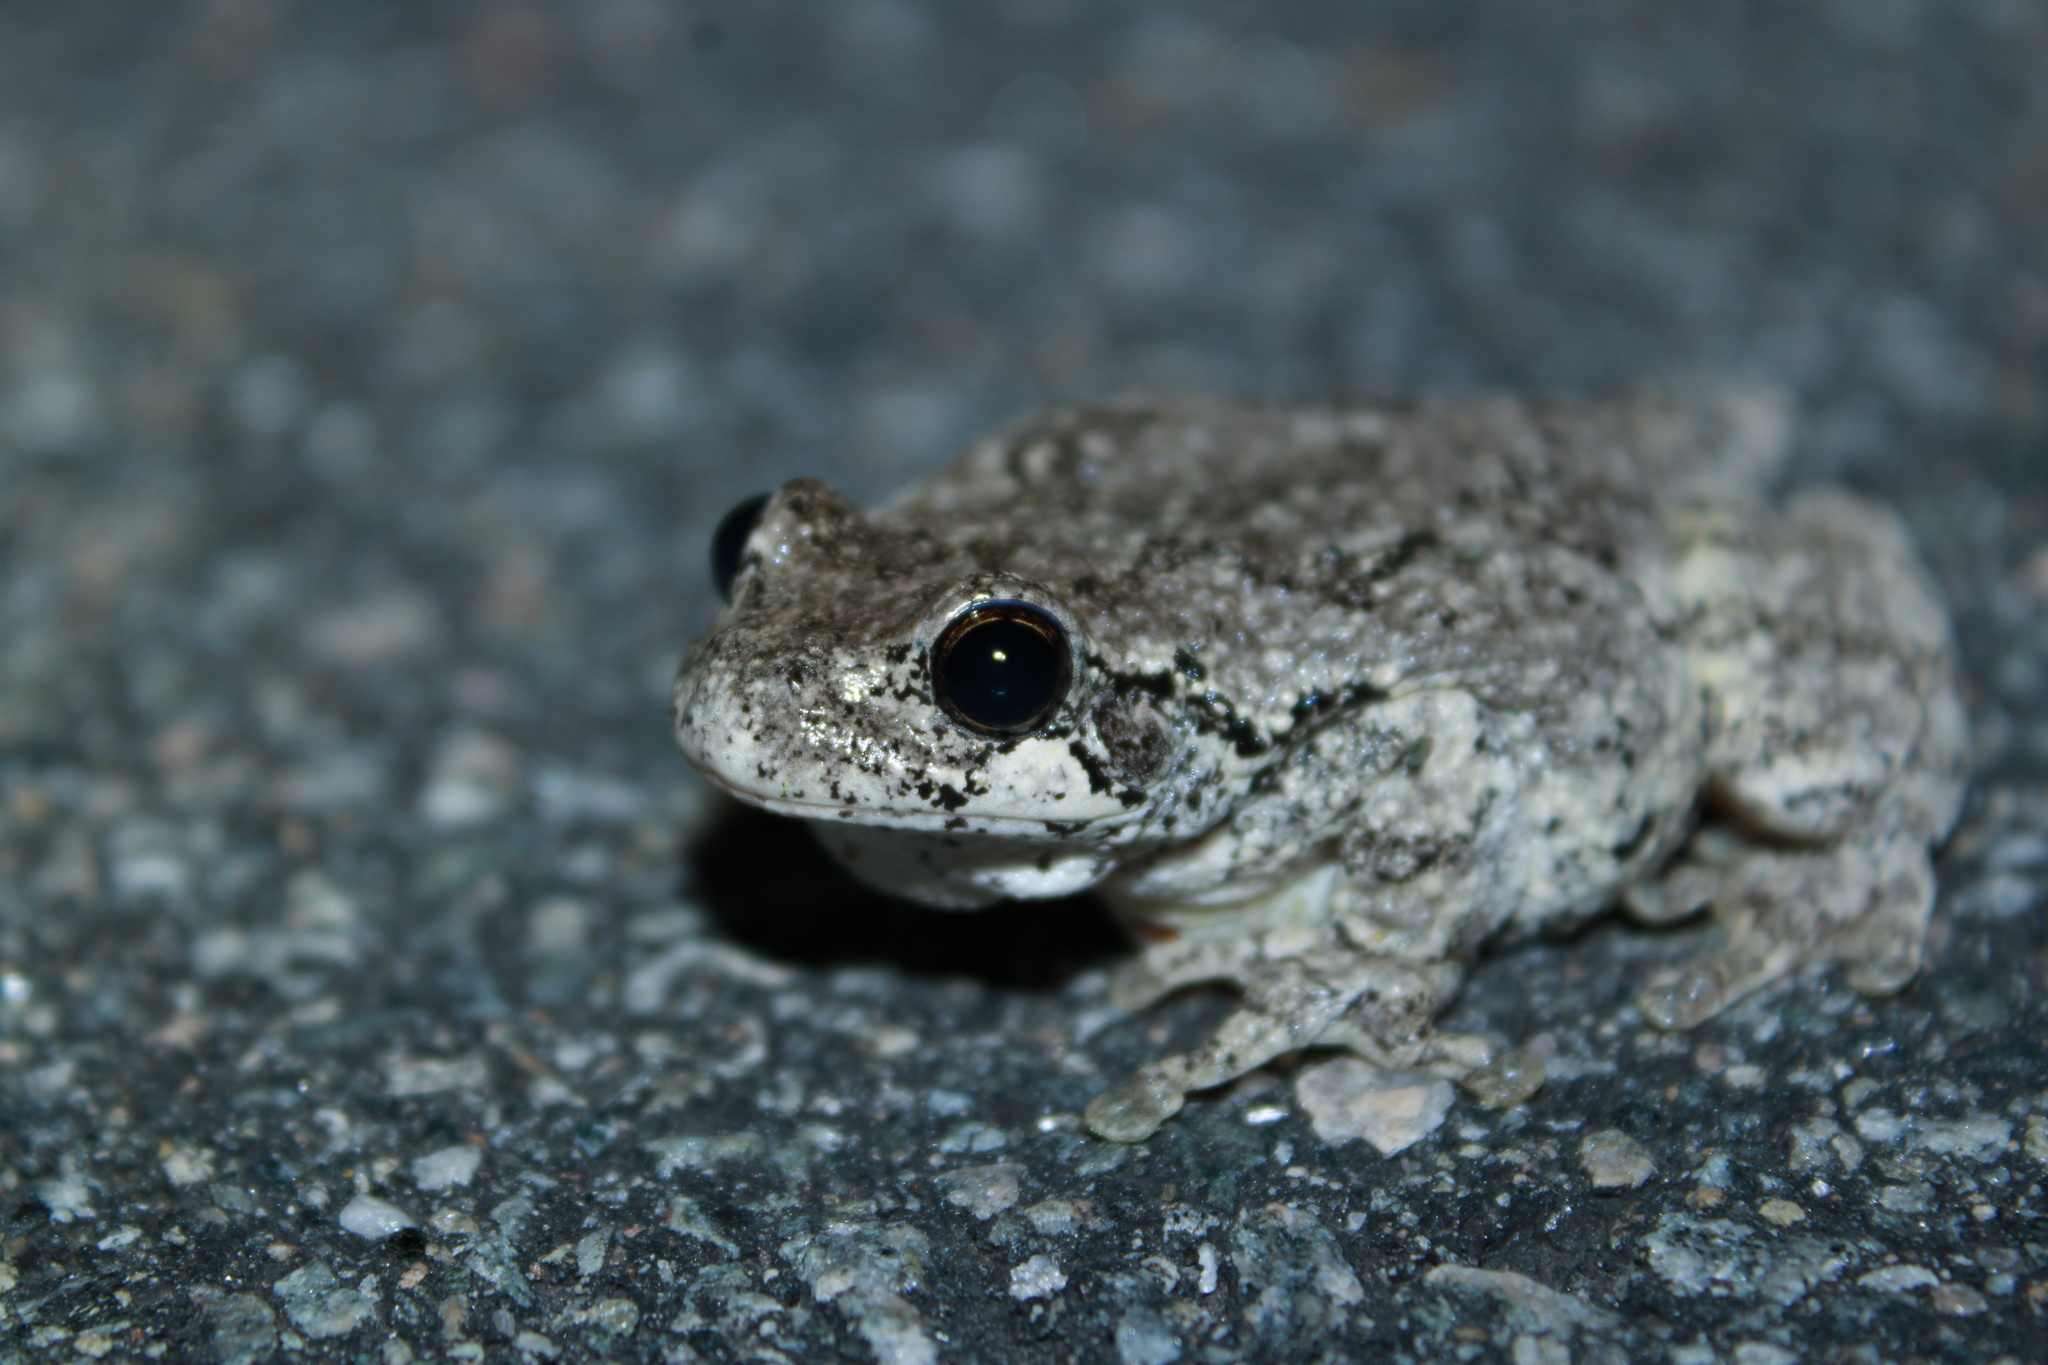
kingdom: Animalia
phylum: Chordata
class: Amphibia
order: Anura
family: Hylidae
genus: Dryophytes
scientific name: Dryophytes versicolor
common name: Gray treefrog
